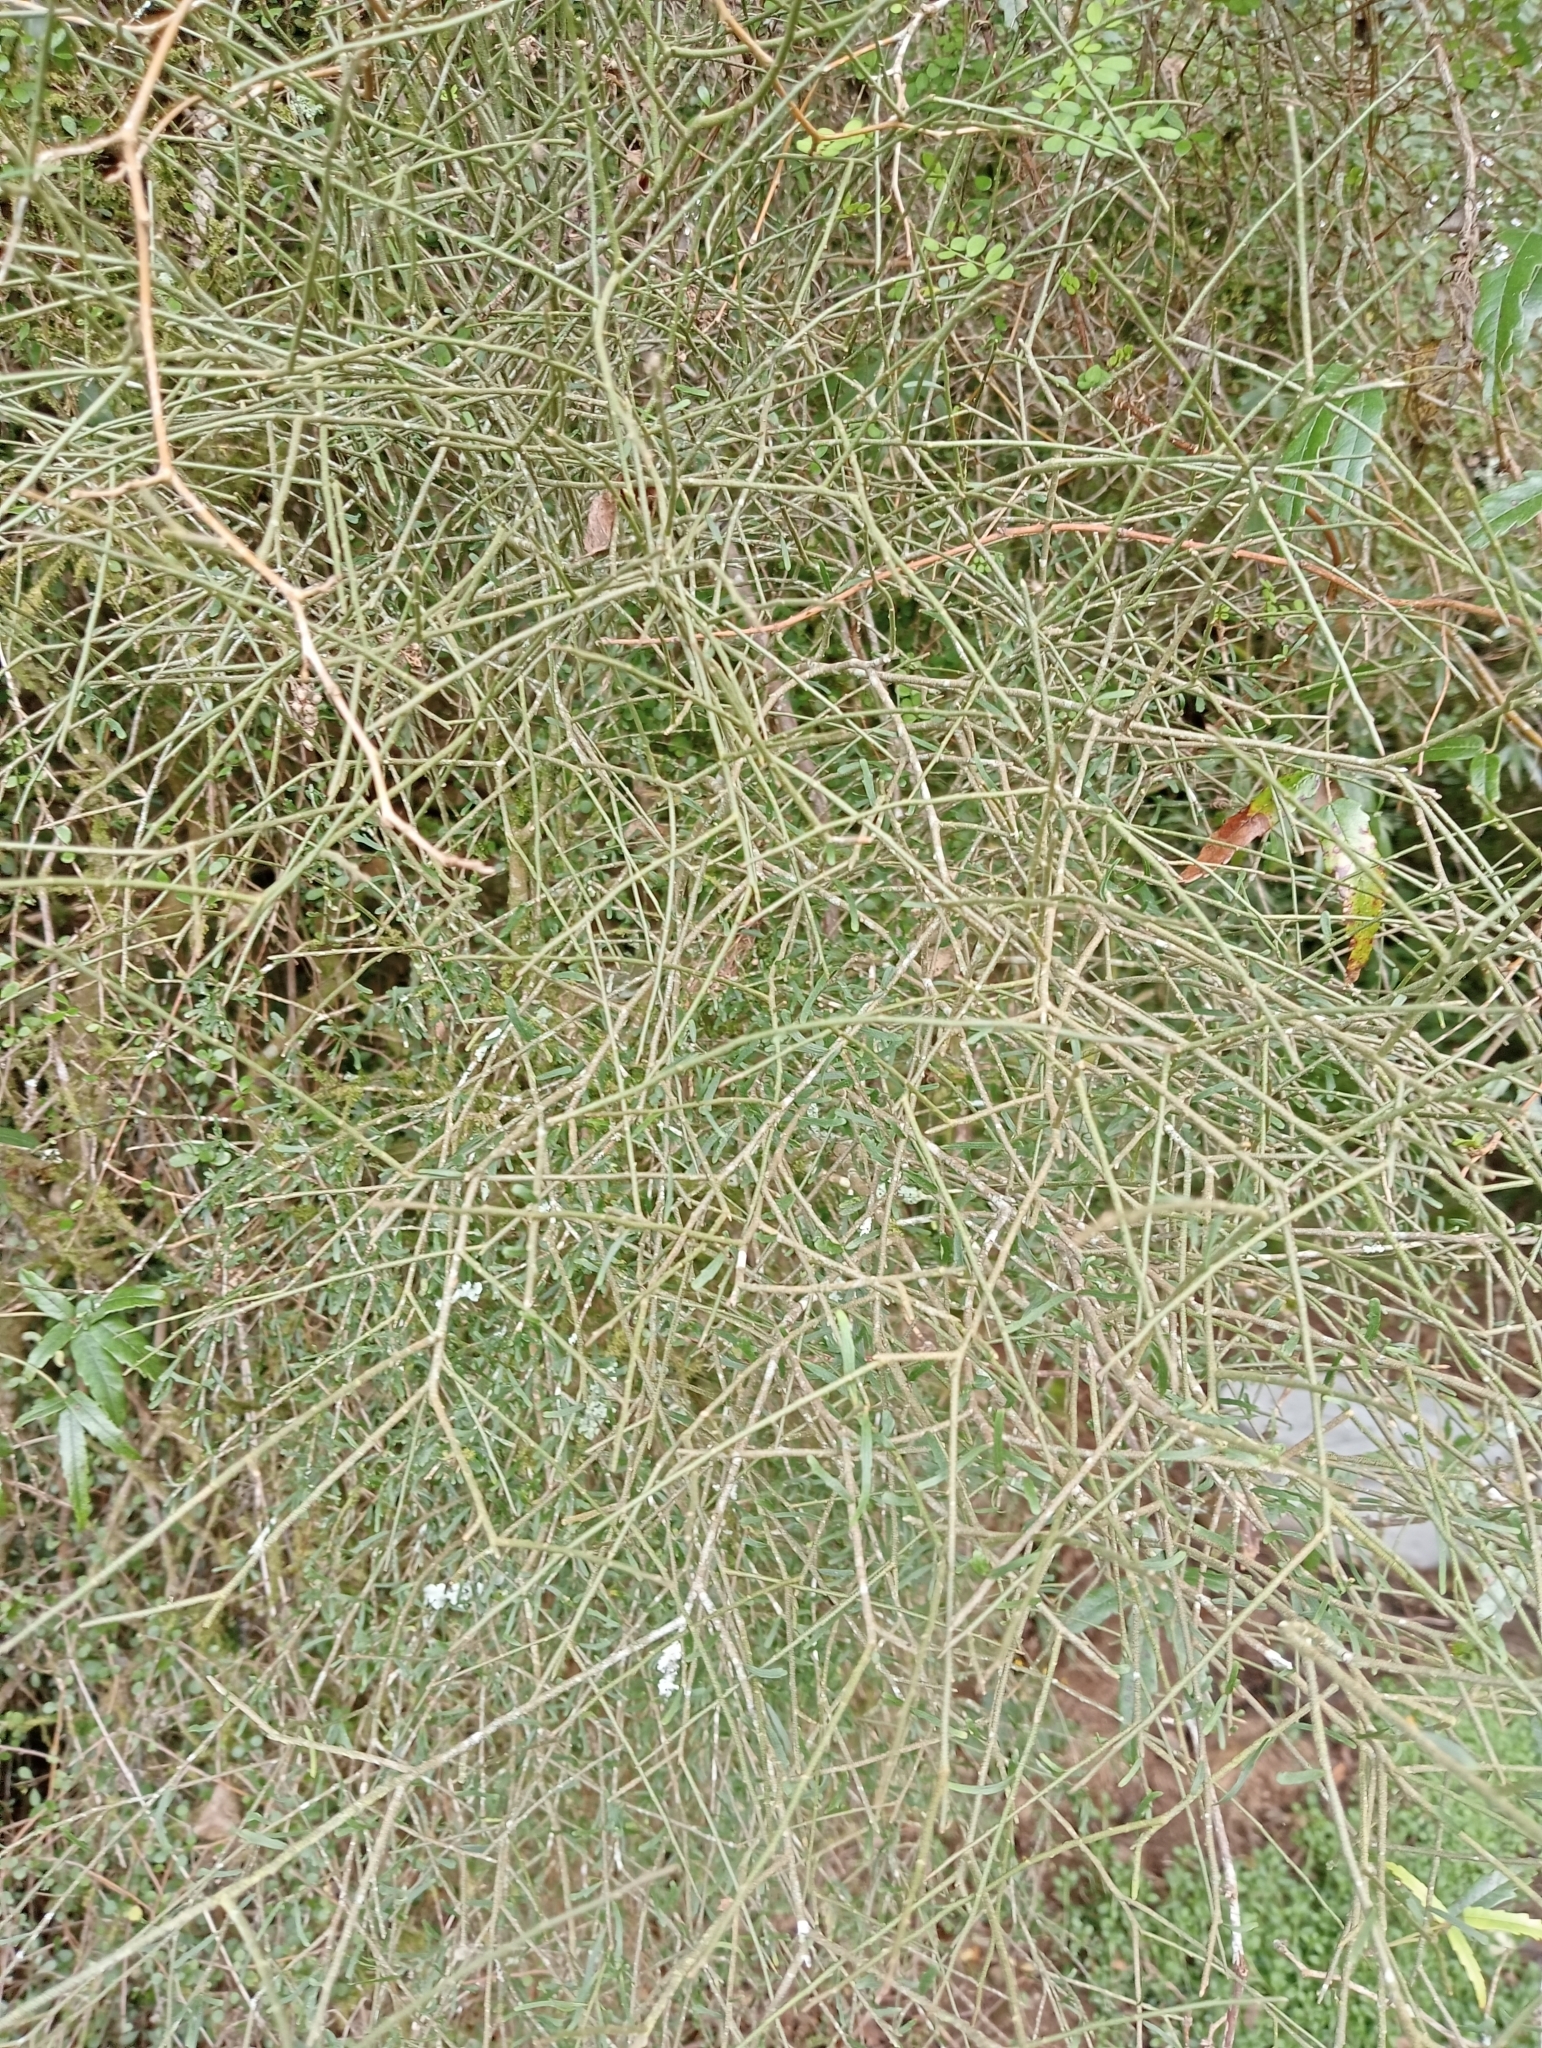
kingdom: Plantae
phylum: Tracheophyta
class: Magnoliopsida
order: Malpighiales
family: Violaceae
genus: Melicytus
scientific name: Melicytus flexuosus
